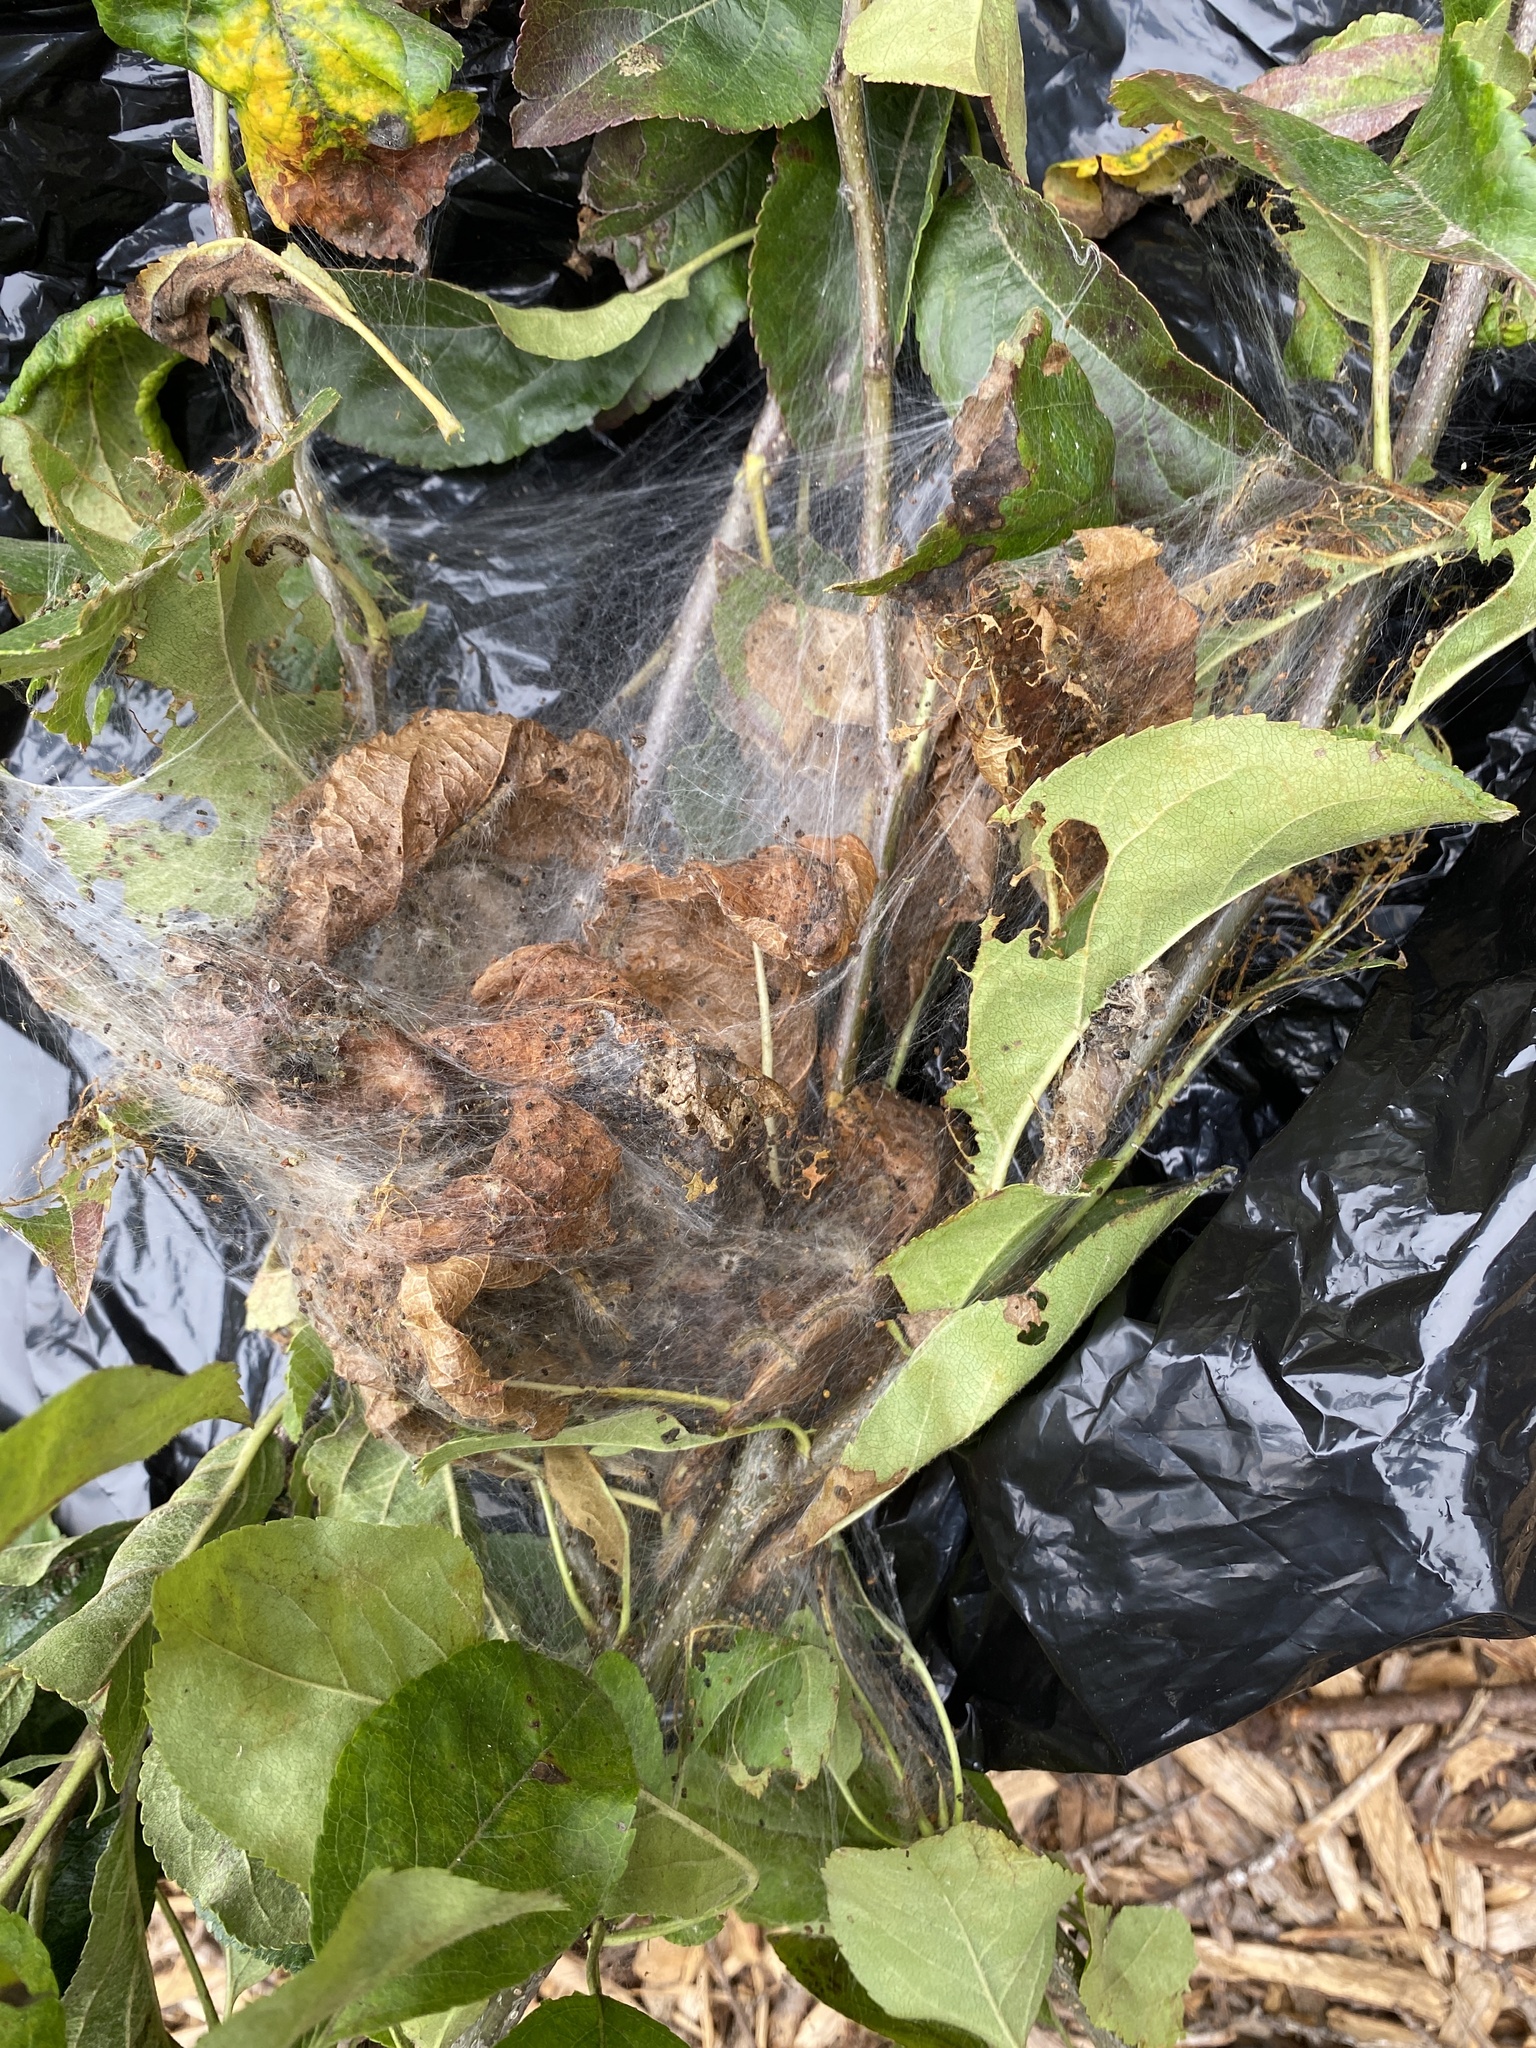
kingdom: Animalia
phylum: Arthropoda
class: Insecta
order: Lepidoptera
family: Erebidae
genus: Hyphantria
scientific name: Hyphantria cunea
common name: American white moth
